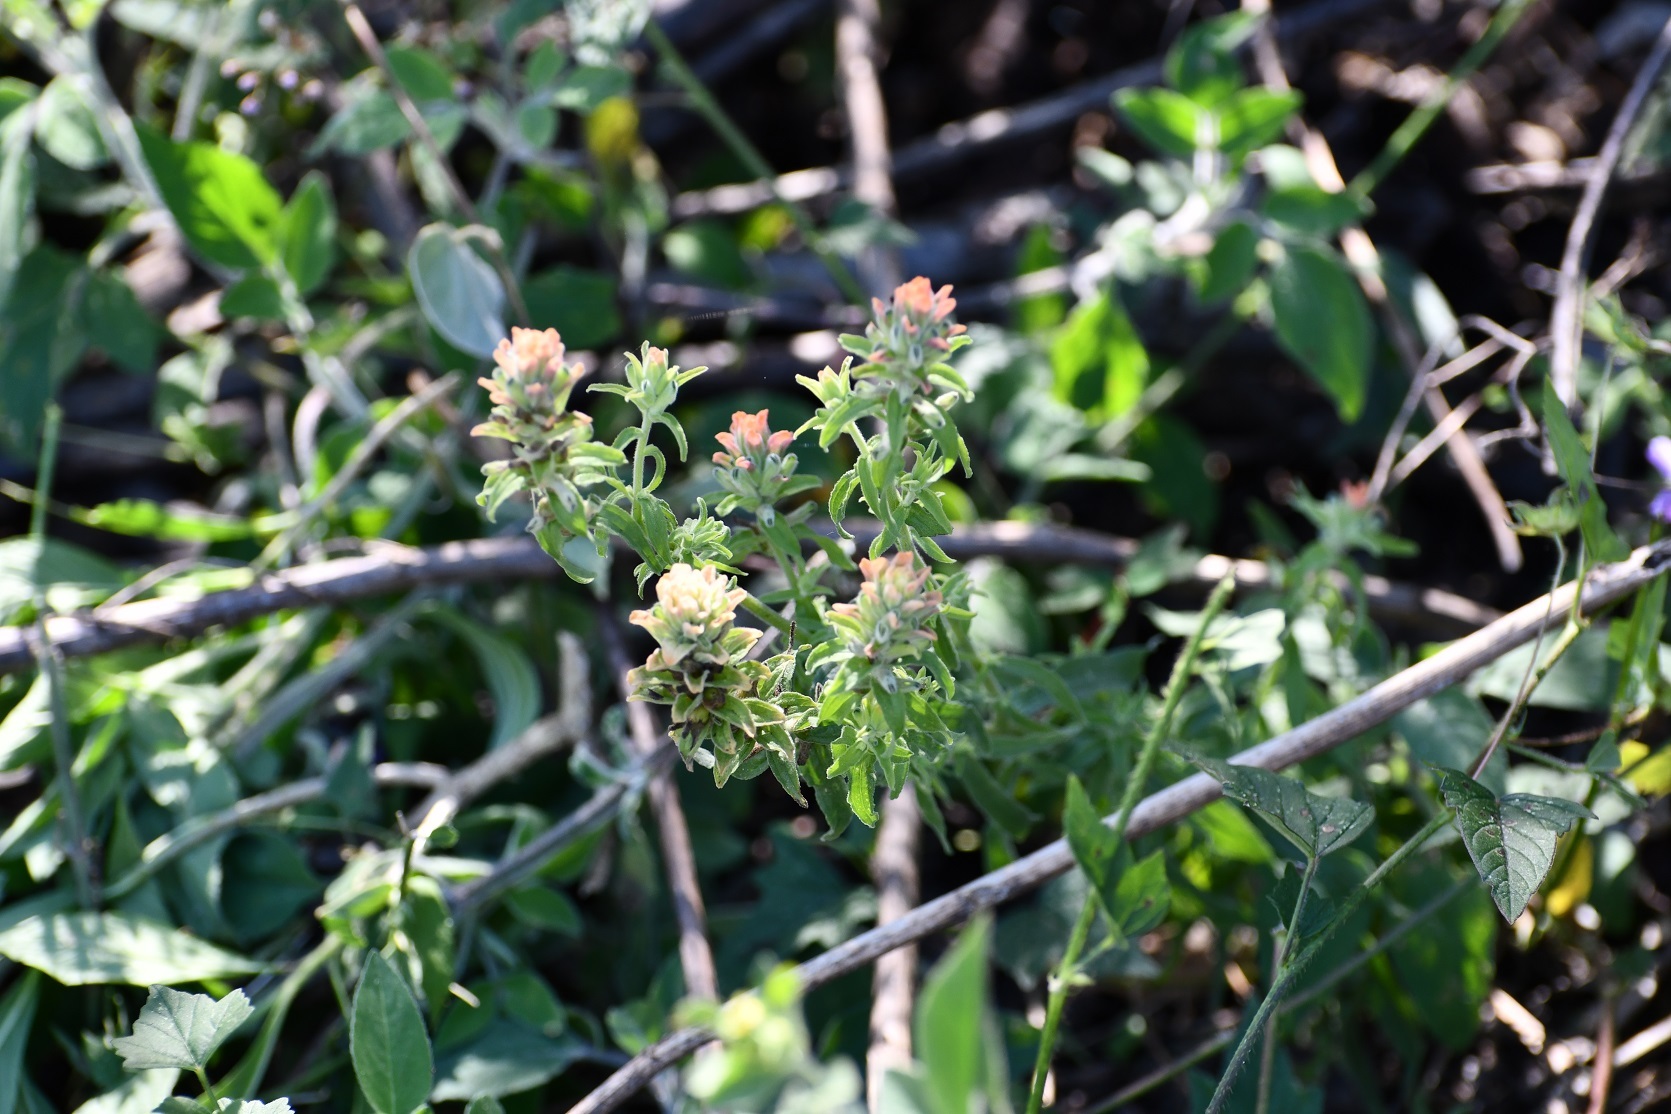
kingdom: Plantae
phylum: Tracheophyta
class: Magnoliopsida
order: Lamiales
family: Orobanchaceae
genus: Castilleja
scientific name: Castilleja arvensis
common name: Indian paintbrush
